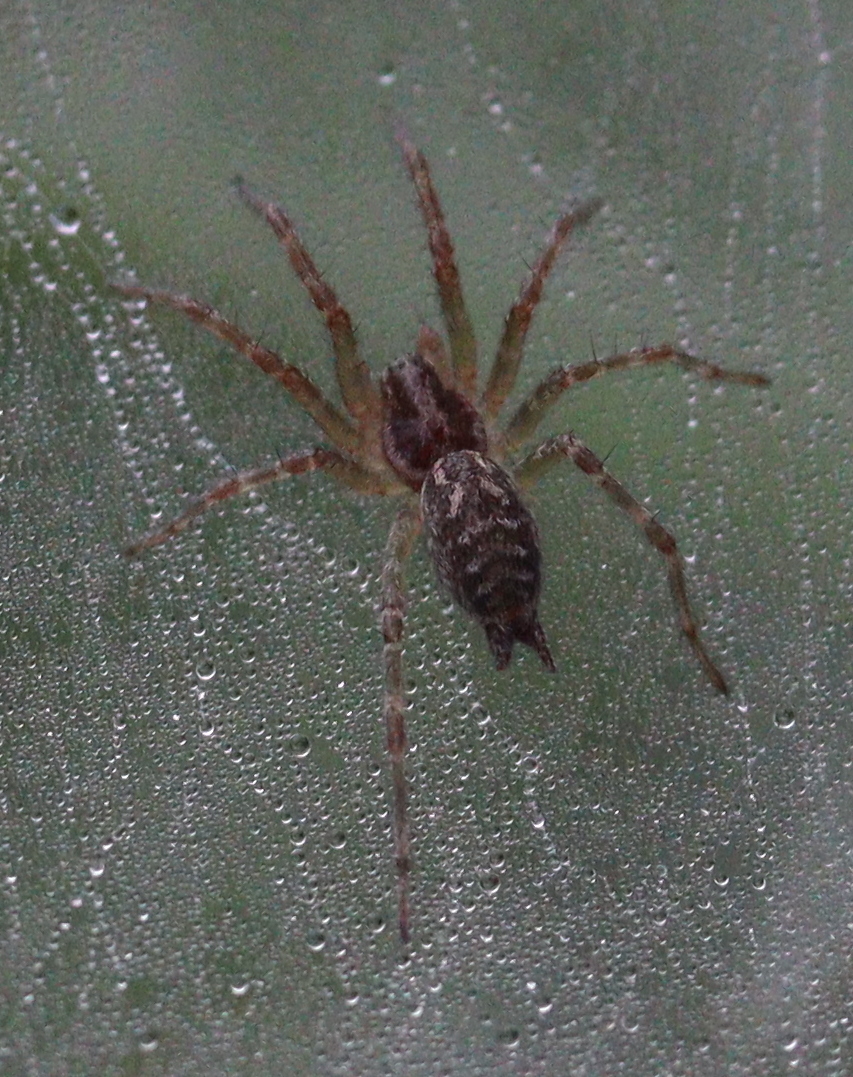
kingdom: Animalia
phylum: Arthropoda
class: Arachnida
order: Araneae
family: Agelenidae
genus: Allagelena
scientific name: Allagelena gracilens
